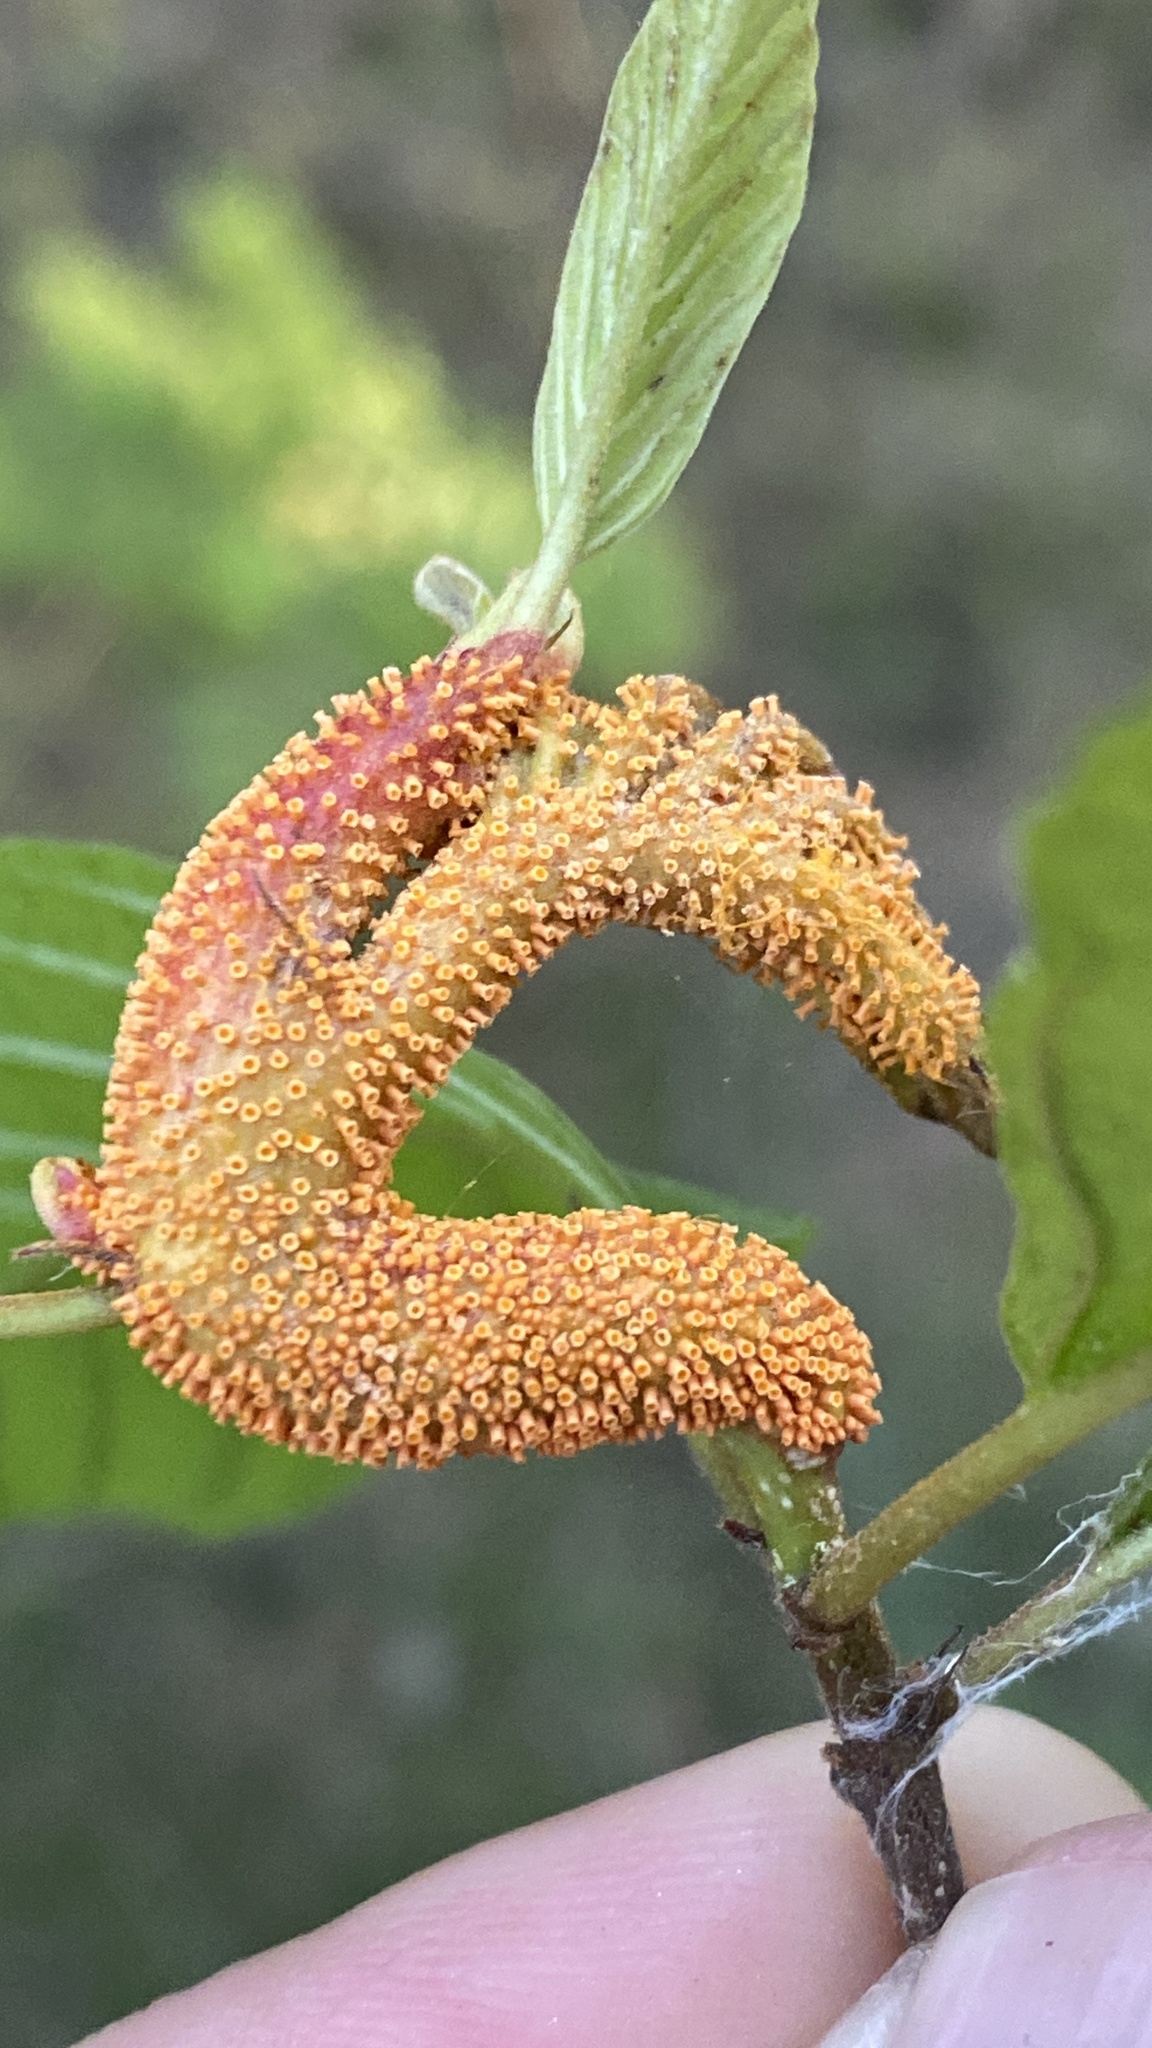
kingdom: Fungi
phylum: Basidiomycota
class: Pucciniomycetes
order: Pucciniales
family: Pucciniaceae
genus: Puccinia
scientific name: Puccinia coronata
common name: Crown rust
